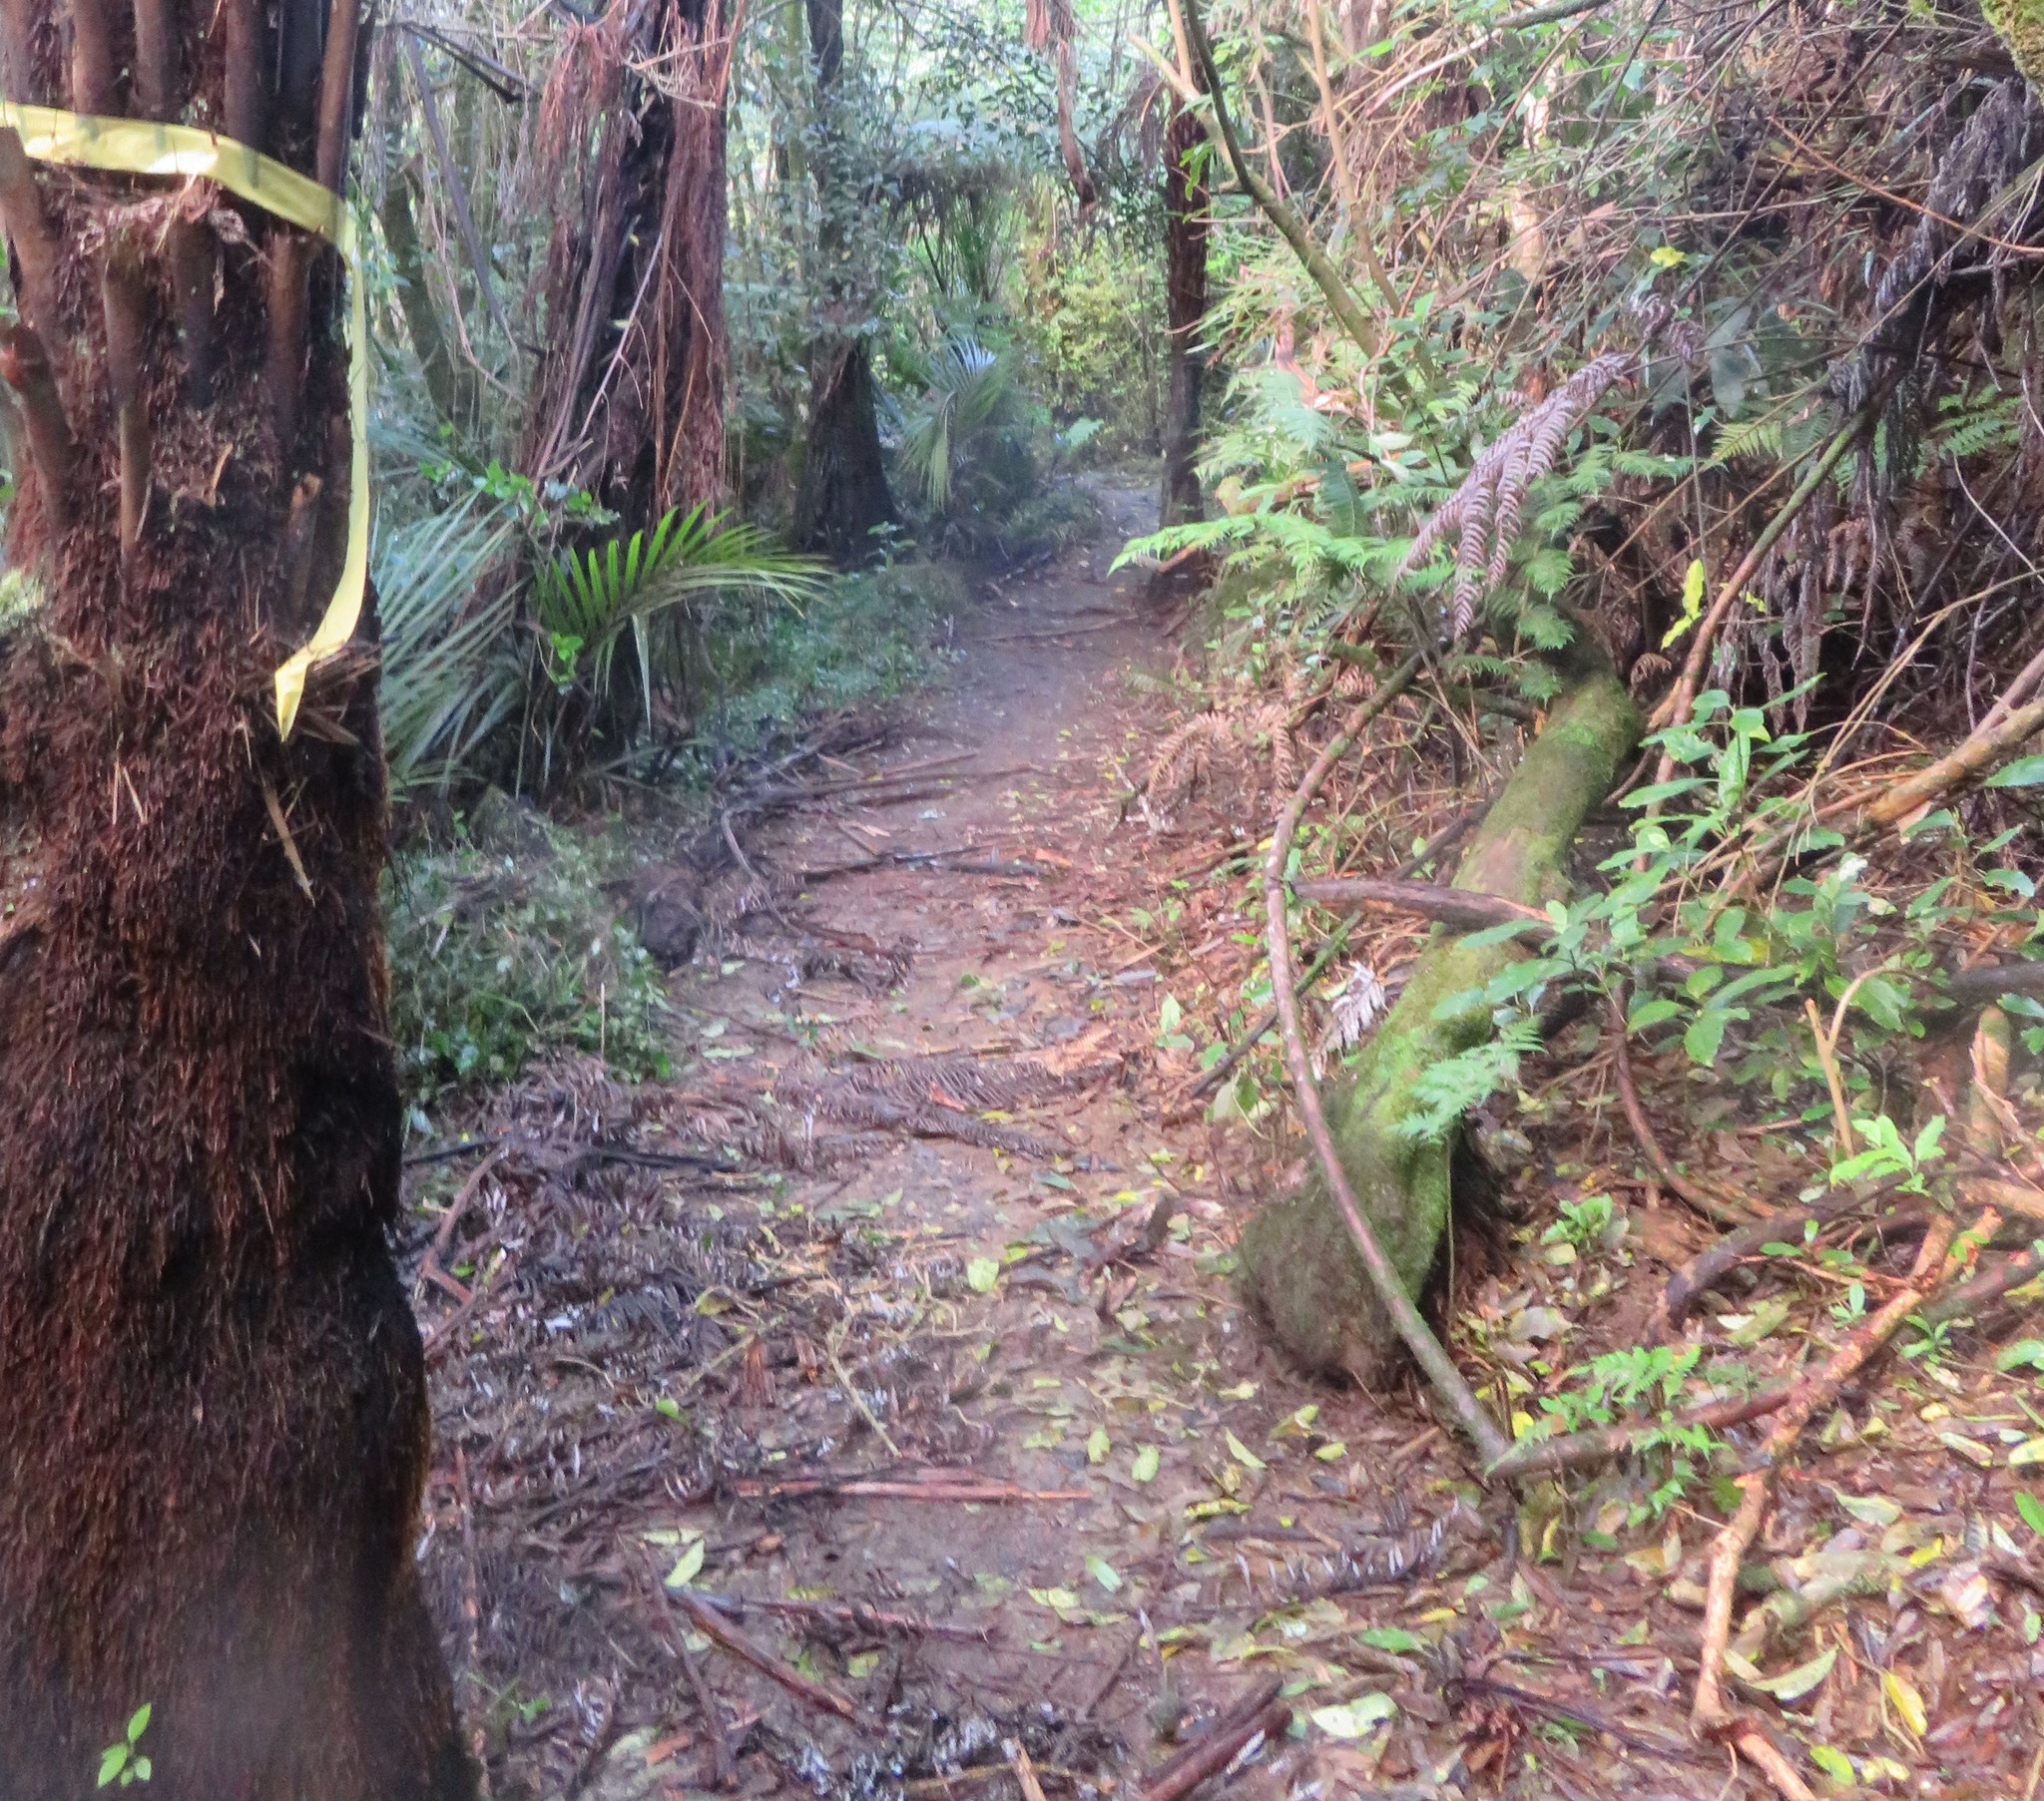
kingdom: Plantae
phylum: Tracheophyta
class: Liliopsida
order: Commelinales
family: Commelinaceae
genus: Tradescantia
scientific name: Tradescantia fluminensis
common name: Wandering-jew
